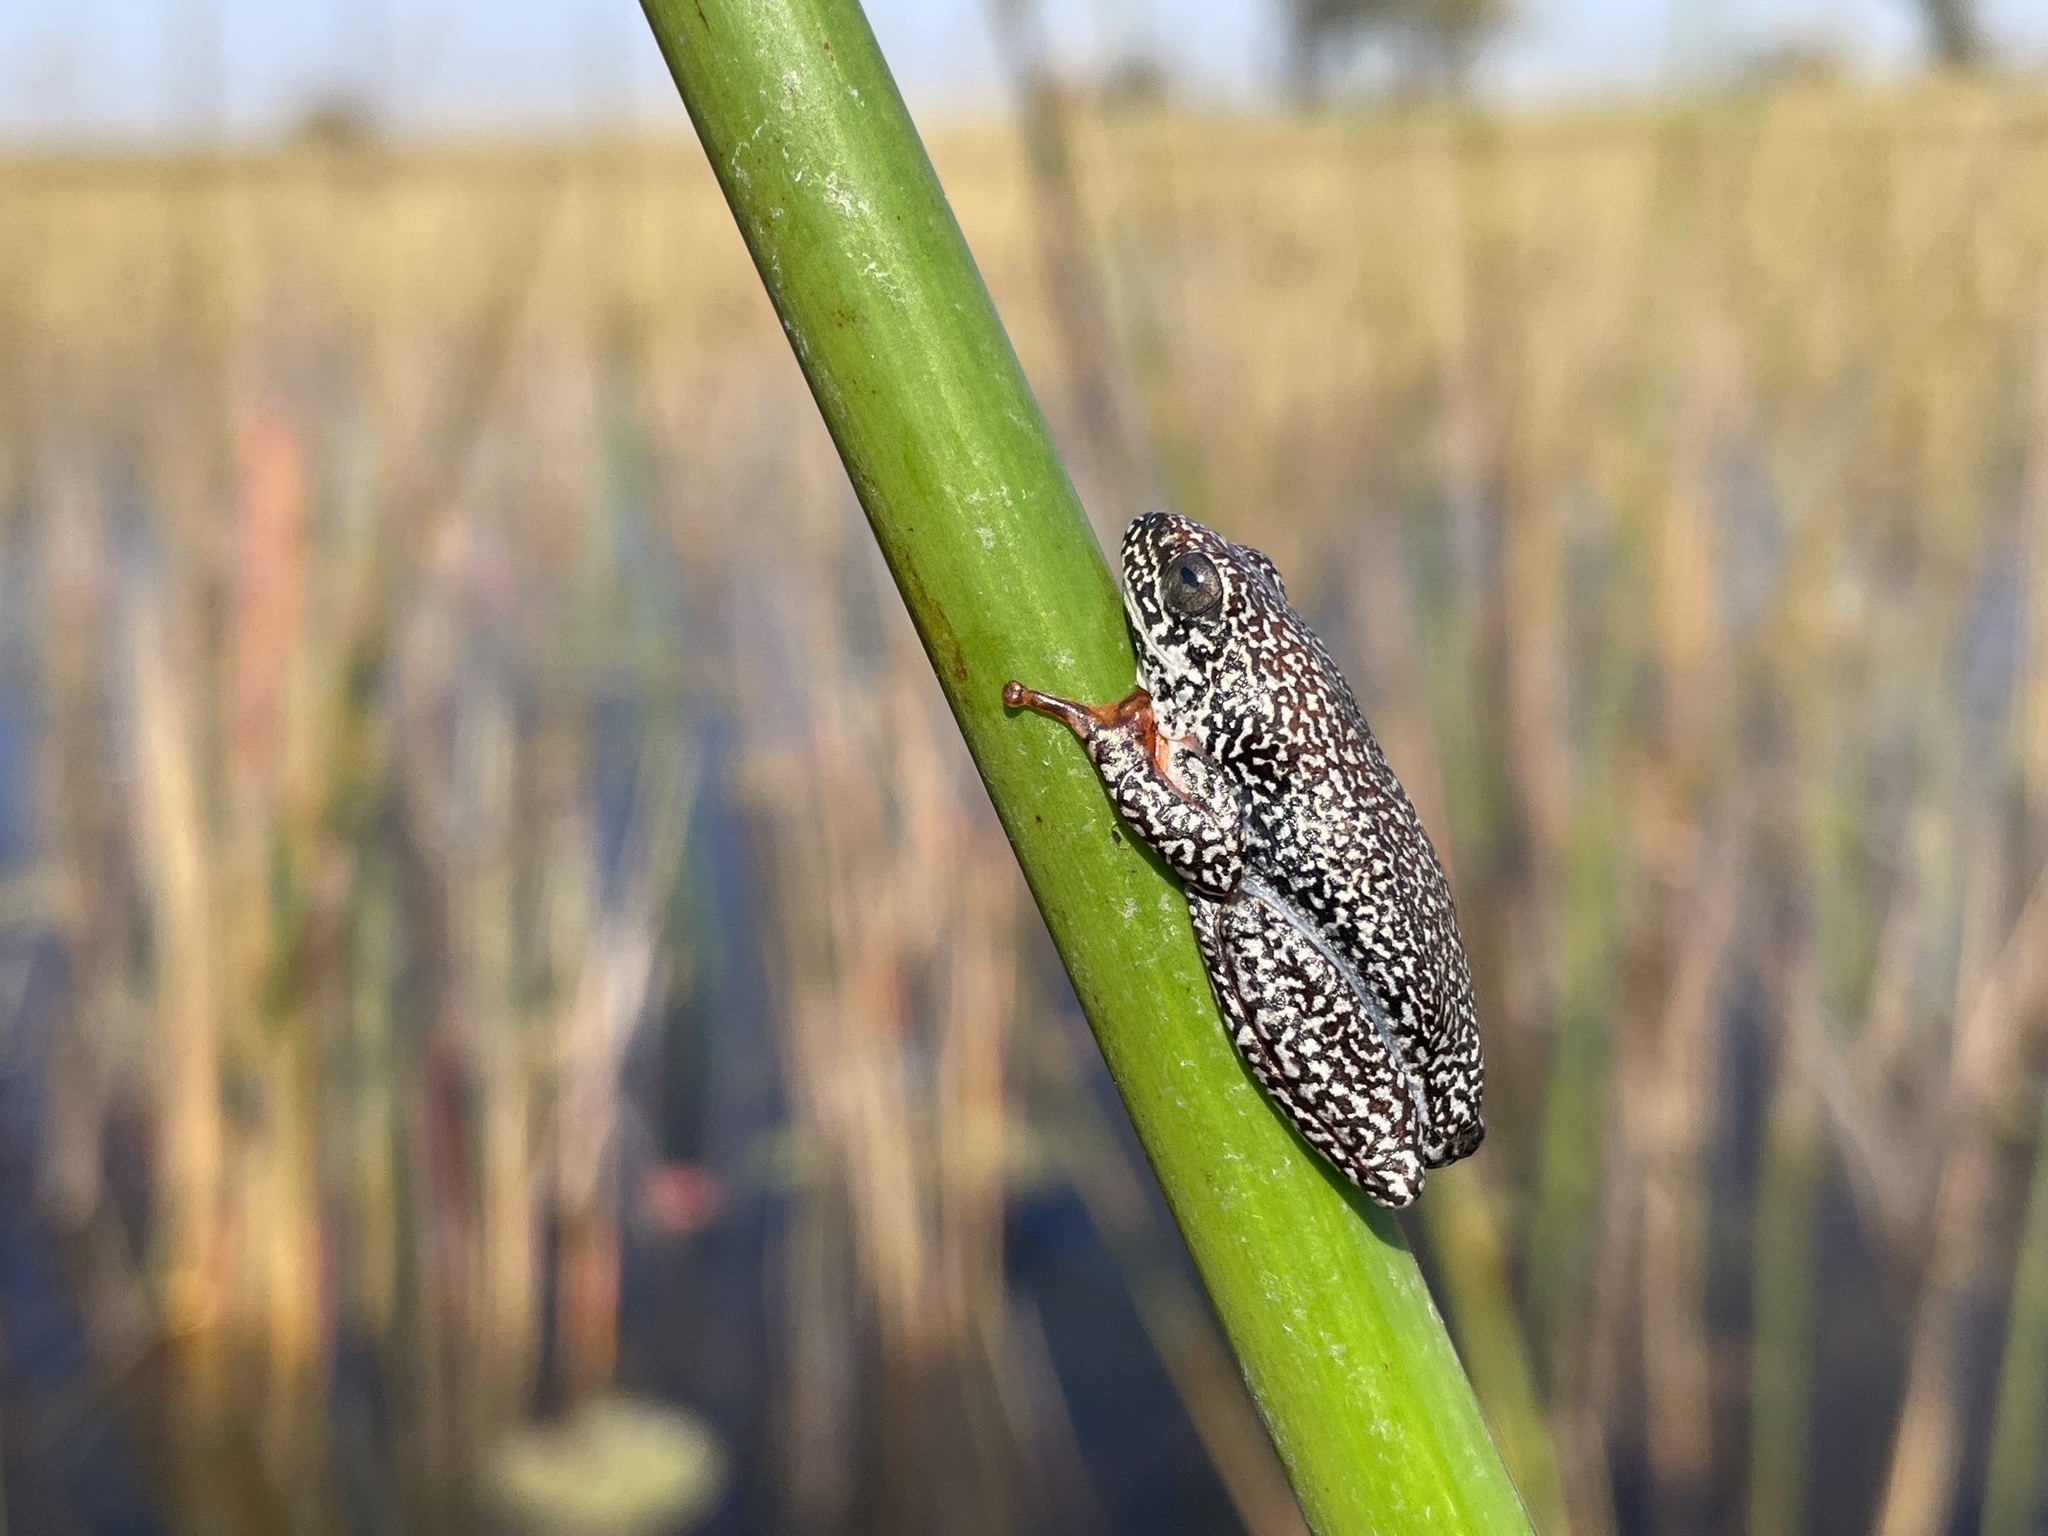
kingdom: Animalia
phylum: Chordata
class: Amphibia
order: Anura
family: Hyperoliidae
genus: Hyperolius
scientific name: Hyperolius parallelus
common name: Angolan reed frog
